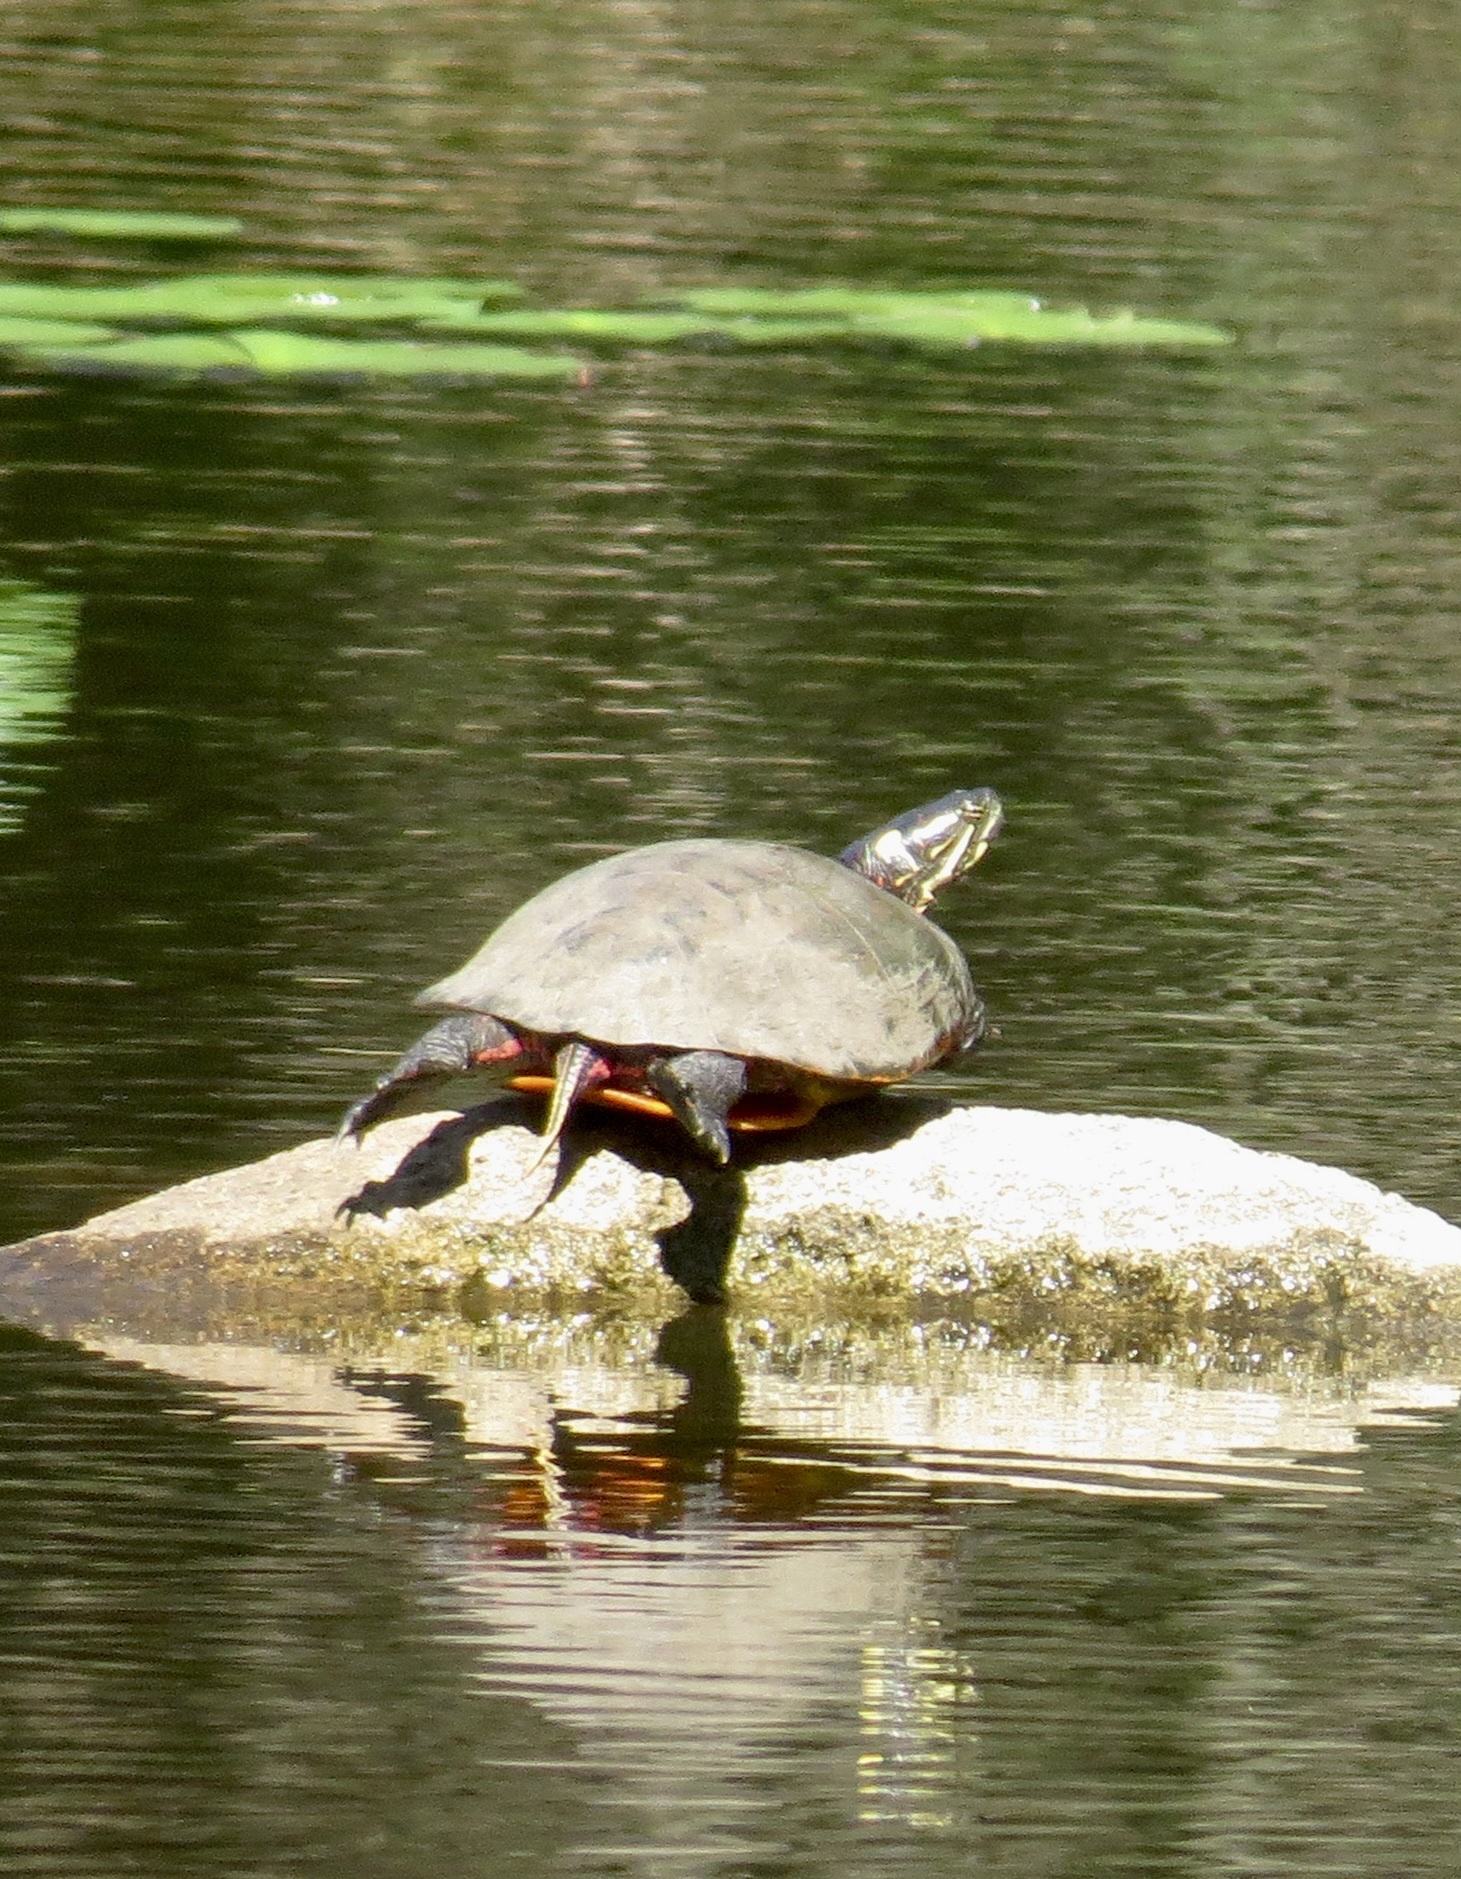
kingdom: Animalia
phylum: Chordata
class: Testudines
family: Emydidae
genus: Chrysemys
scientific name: Chrysemys picta
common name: Painted turtle
